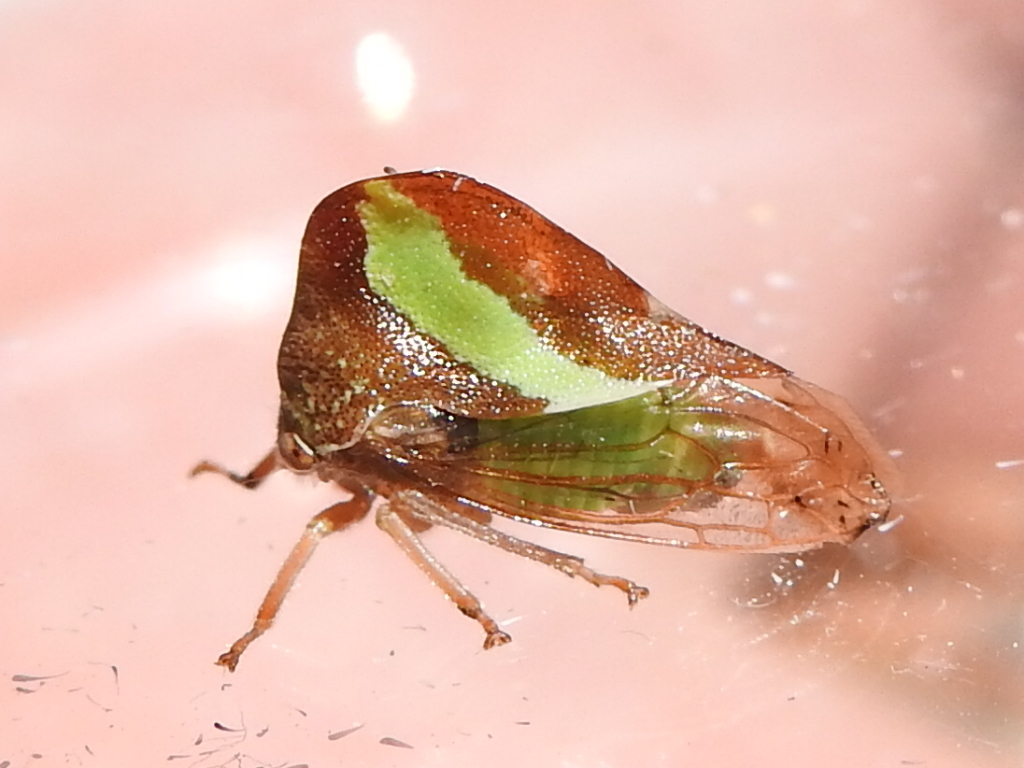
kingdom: Animalia
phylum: Arthropoda
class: Insecta
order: Hemiptera
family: Membracidae
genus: Smilia
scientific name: Smilia camelus
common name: Camel treehopper
